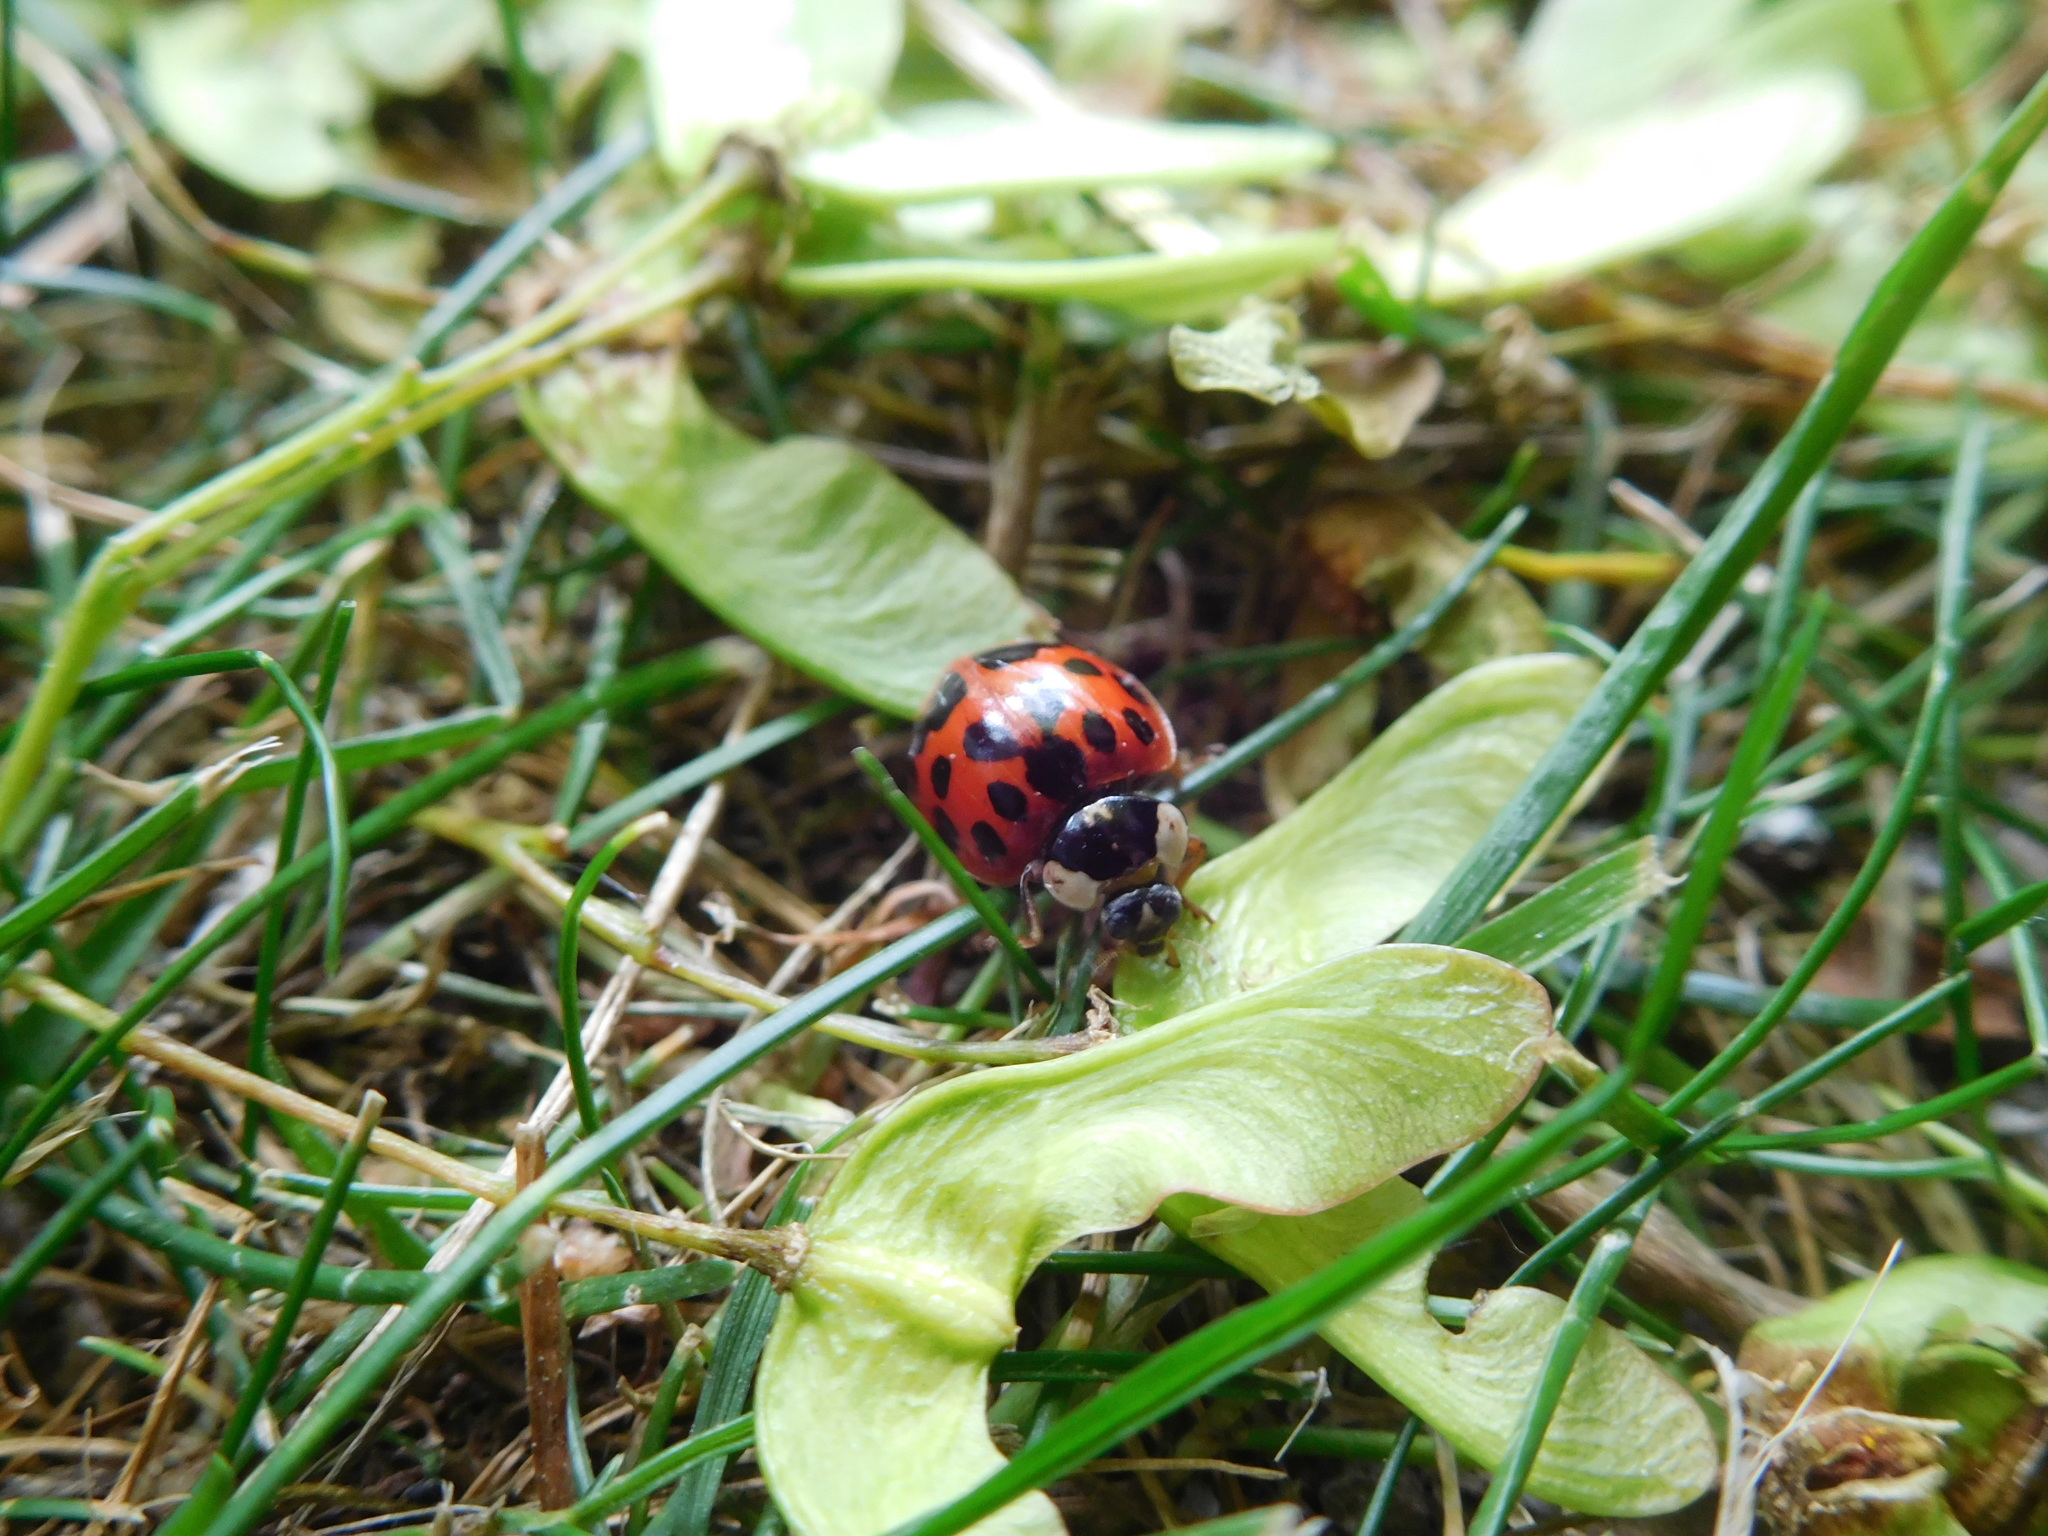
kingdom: Animalia
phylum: Arthropoda
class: Insecta
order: Coleoptera
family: Coccinellidae
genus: Harmonia
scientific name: Harmonia axyridis
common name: Harlequin ladybird
